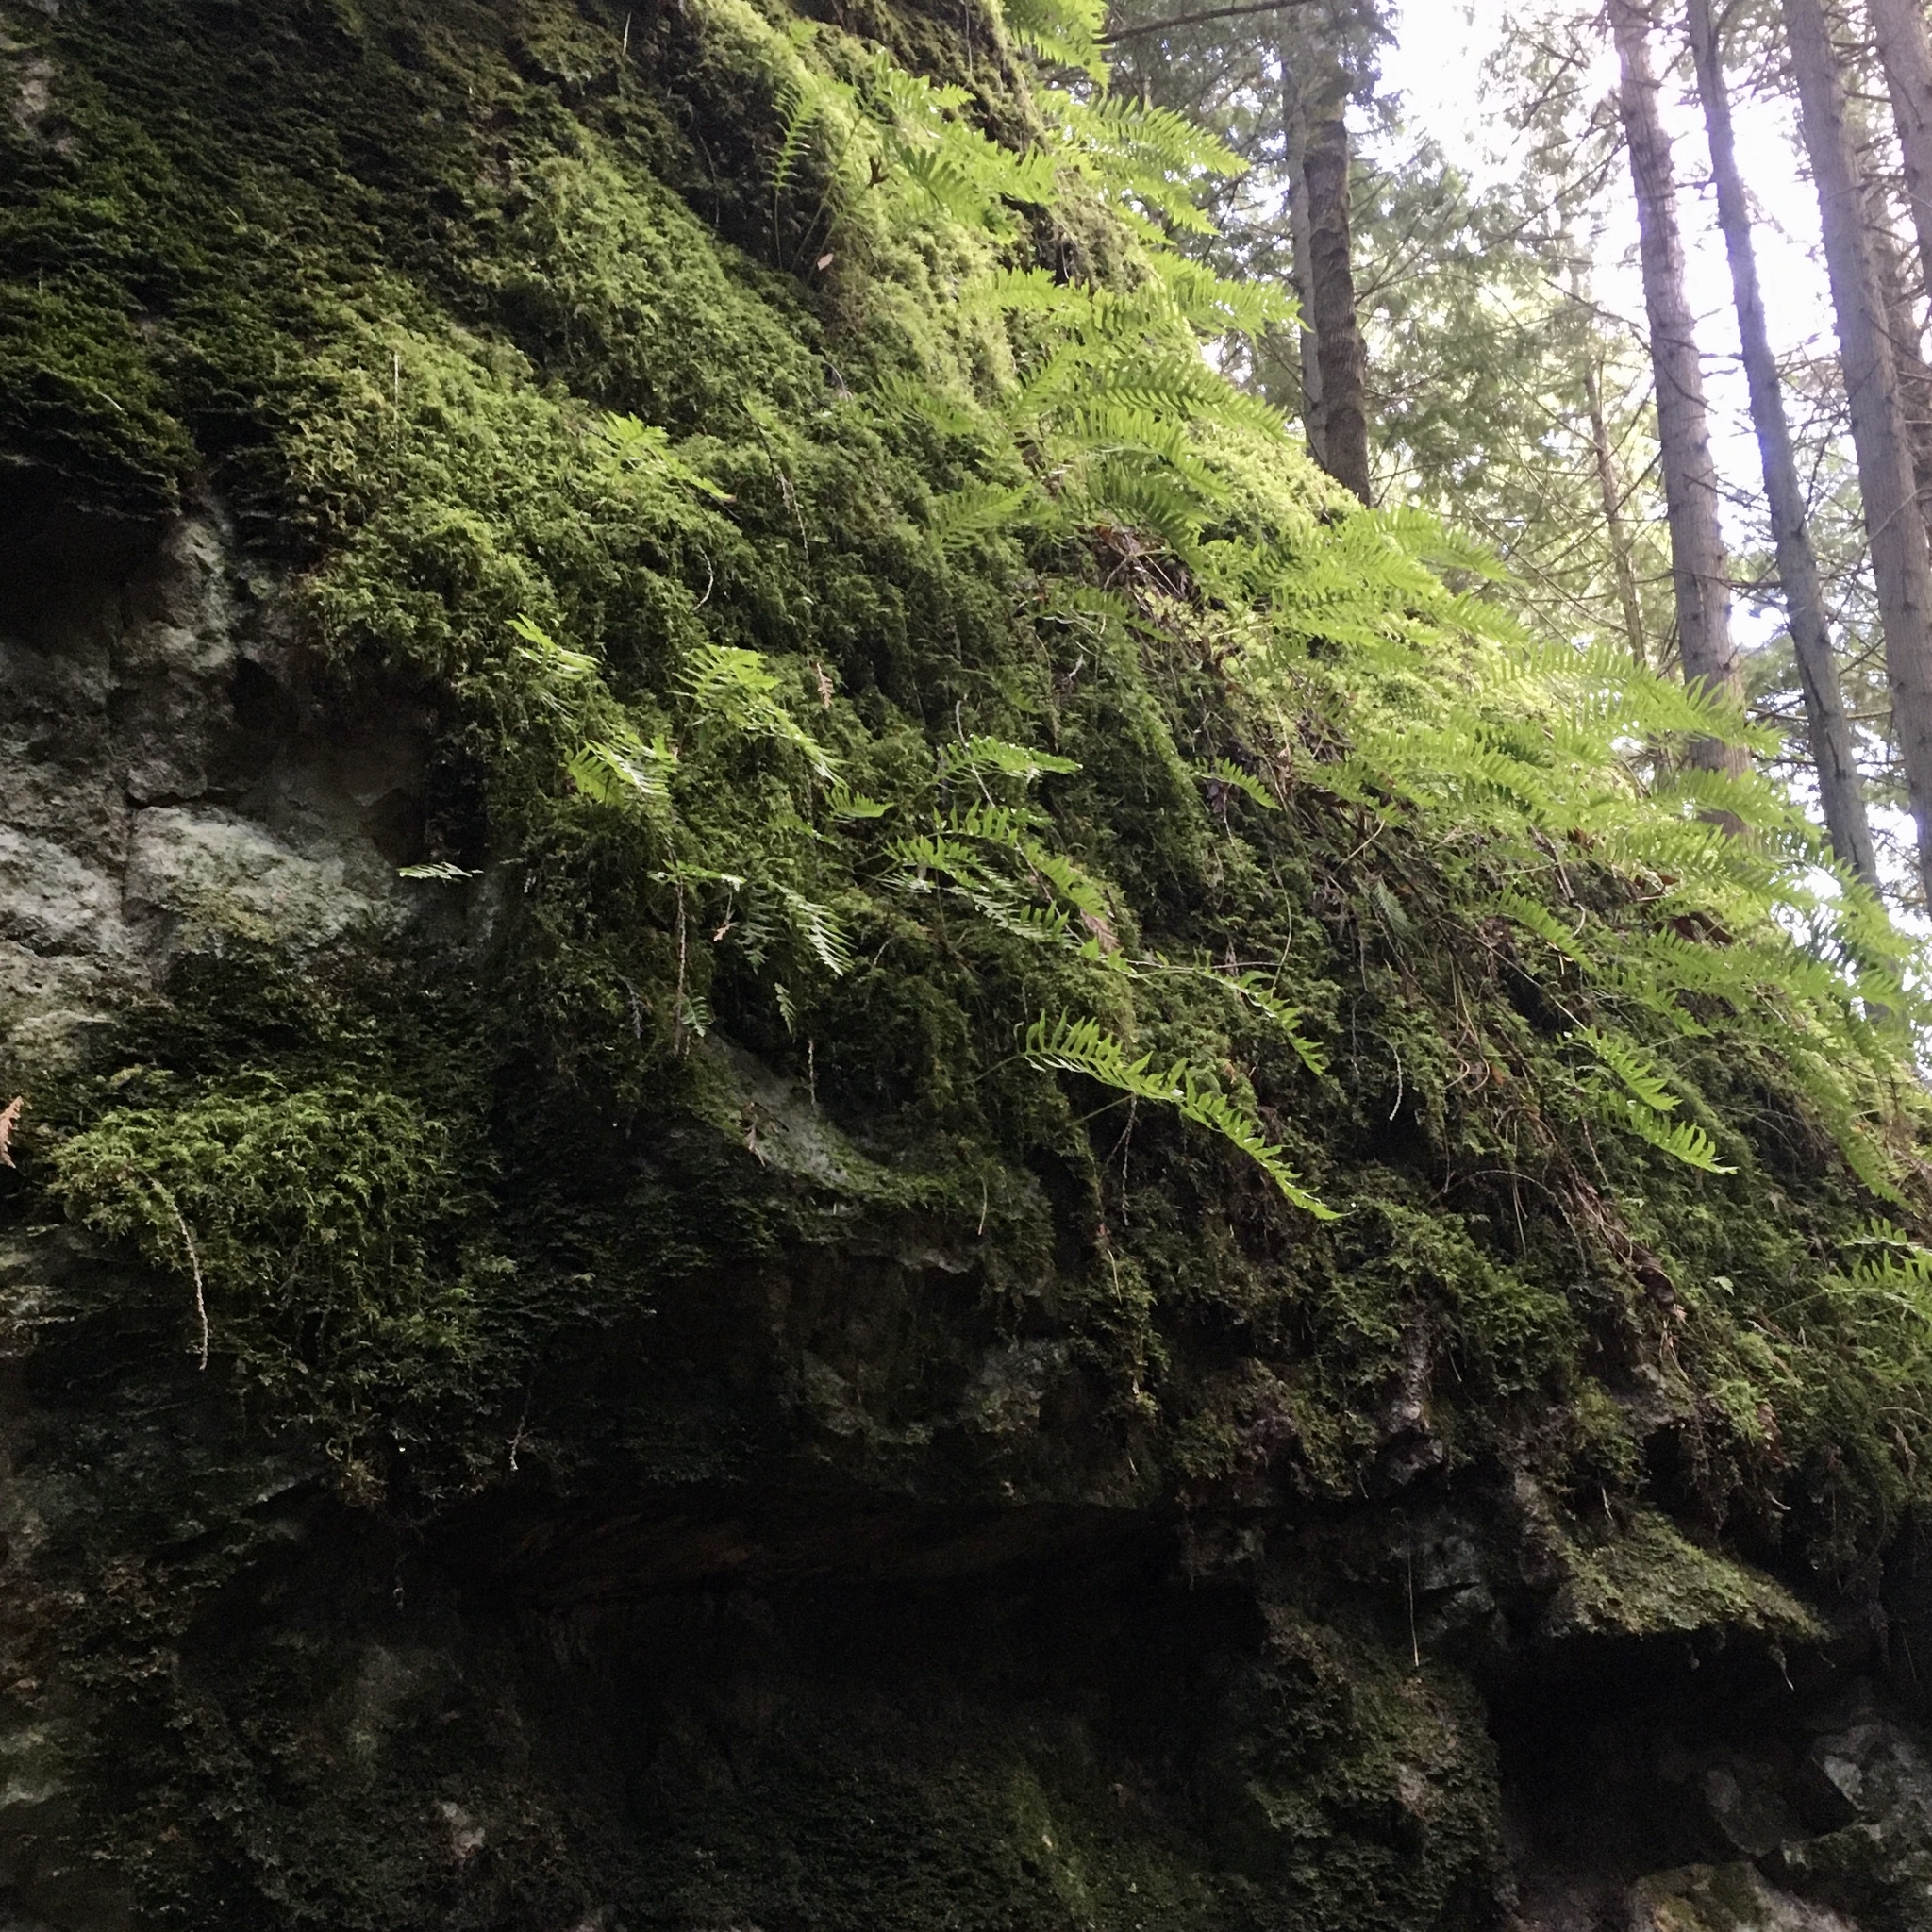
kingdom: Plantae
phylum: Tracheophyta
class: Polypodiopsida
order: Polypodiales
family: Polypodiaceae
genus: Polypodium
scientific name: Polypodium glycyrrhiza
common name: Licorice fern
